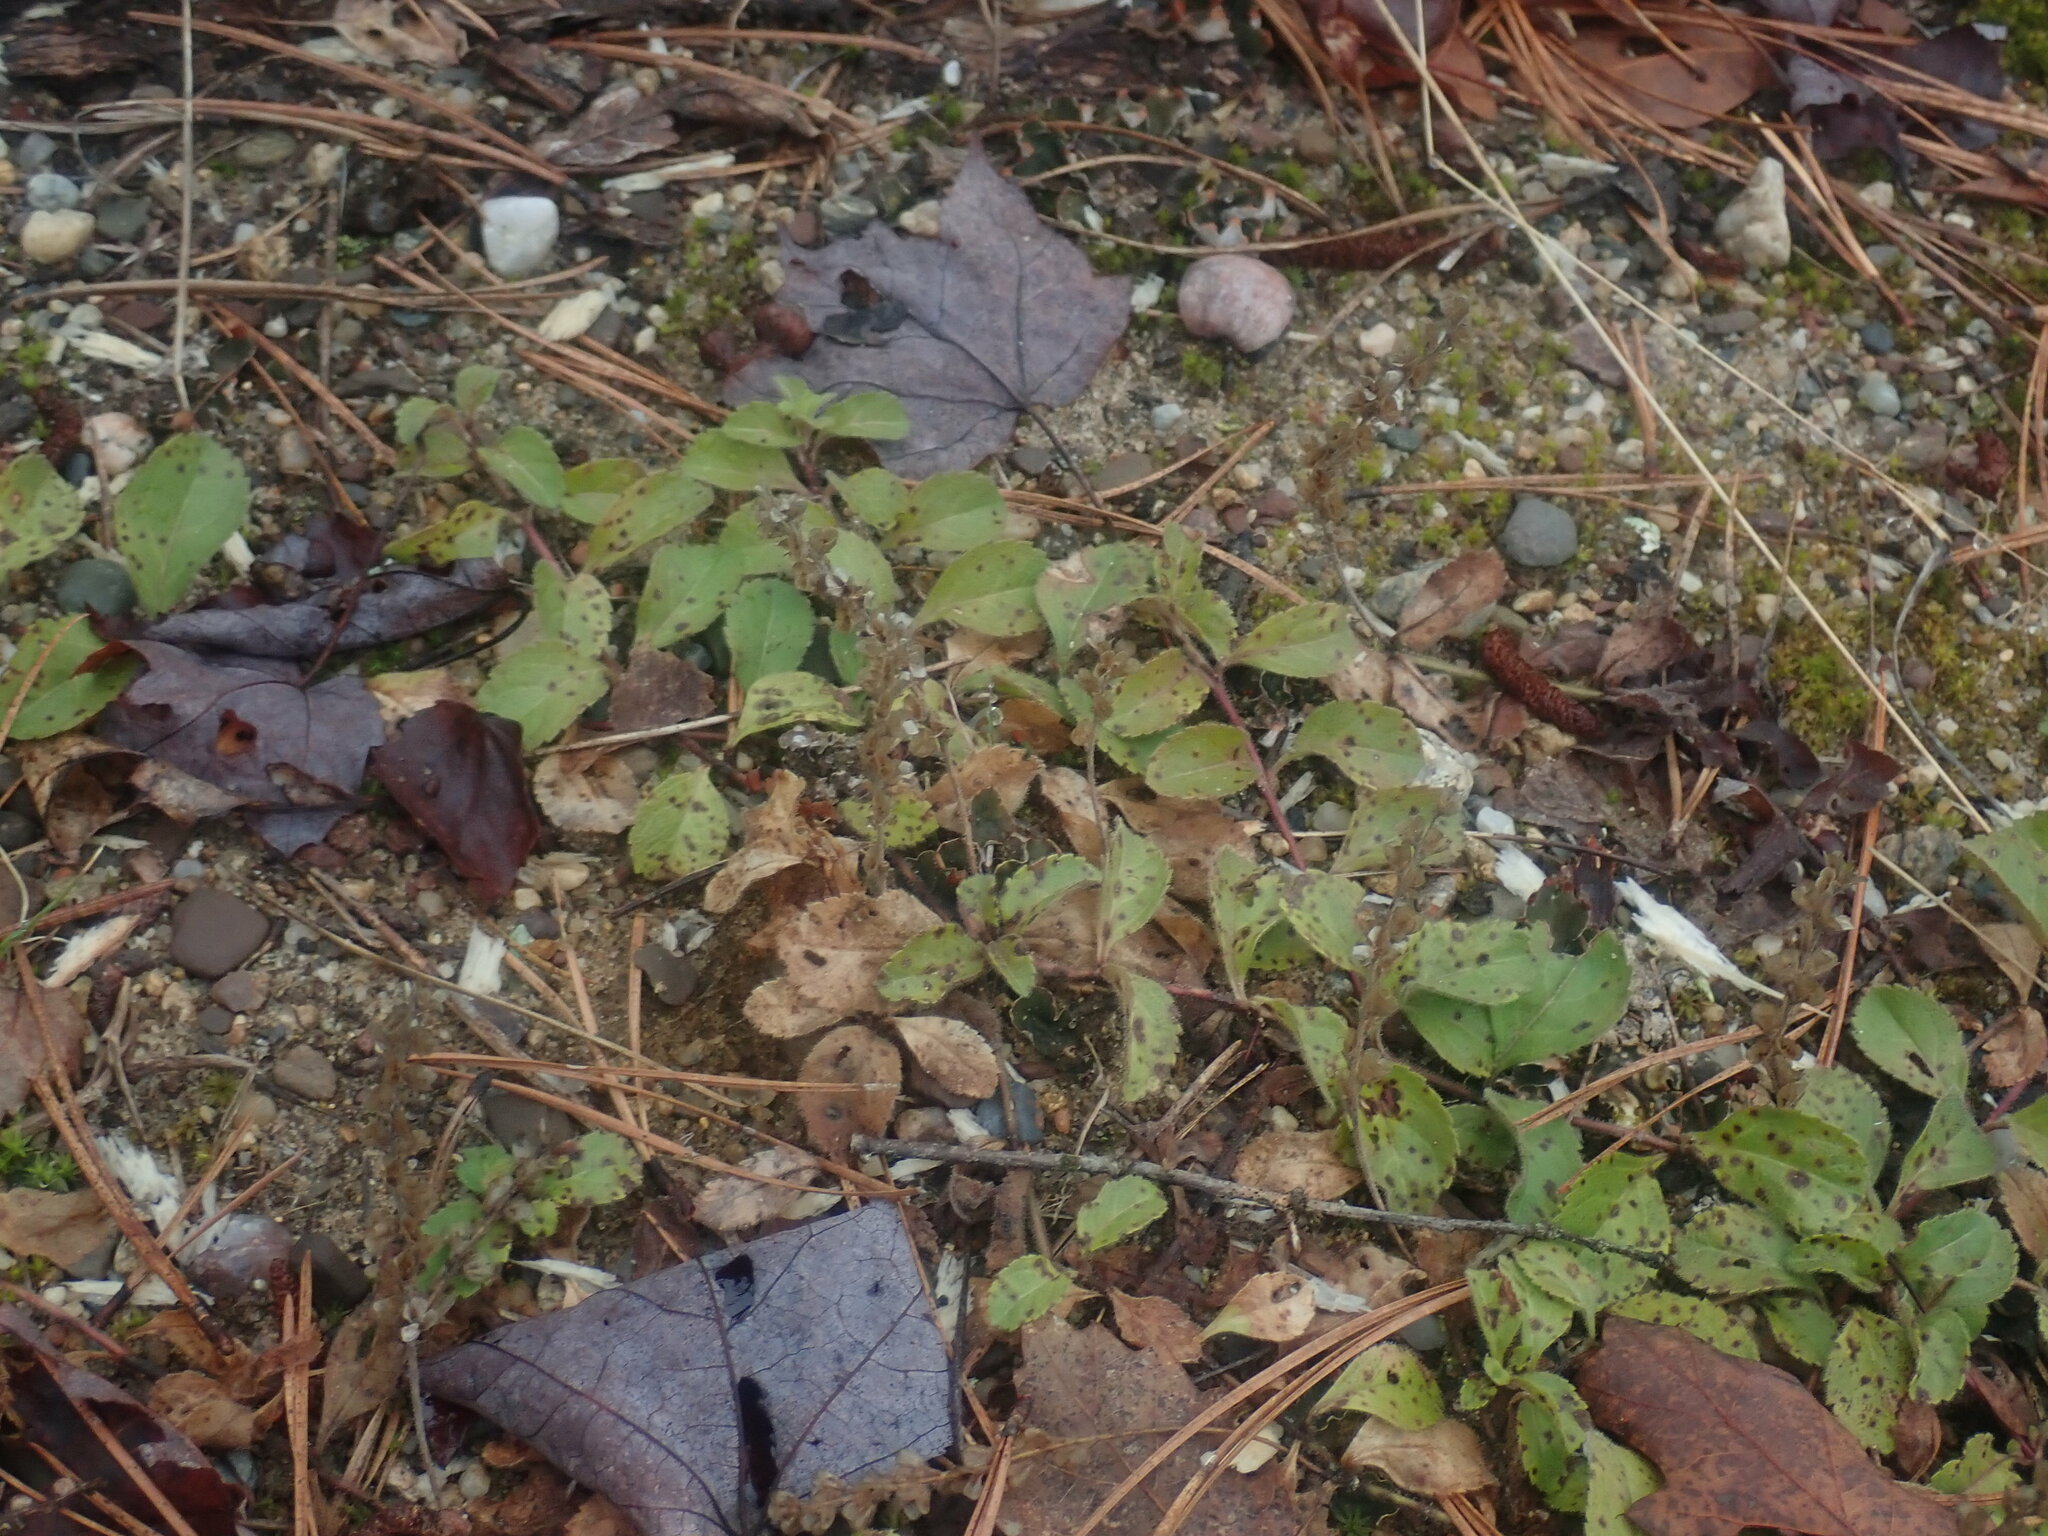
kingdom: Plantae
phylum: Tracheophyta
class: Magnoliopsida
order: Lamiales
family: Plantaginaceae
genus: Veronica
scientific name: Veronica officinalis
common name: Common speedwell
